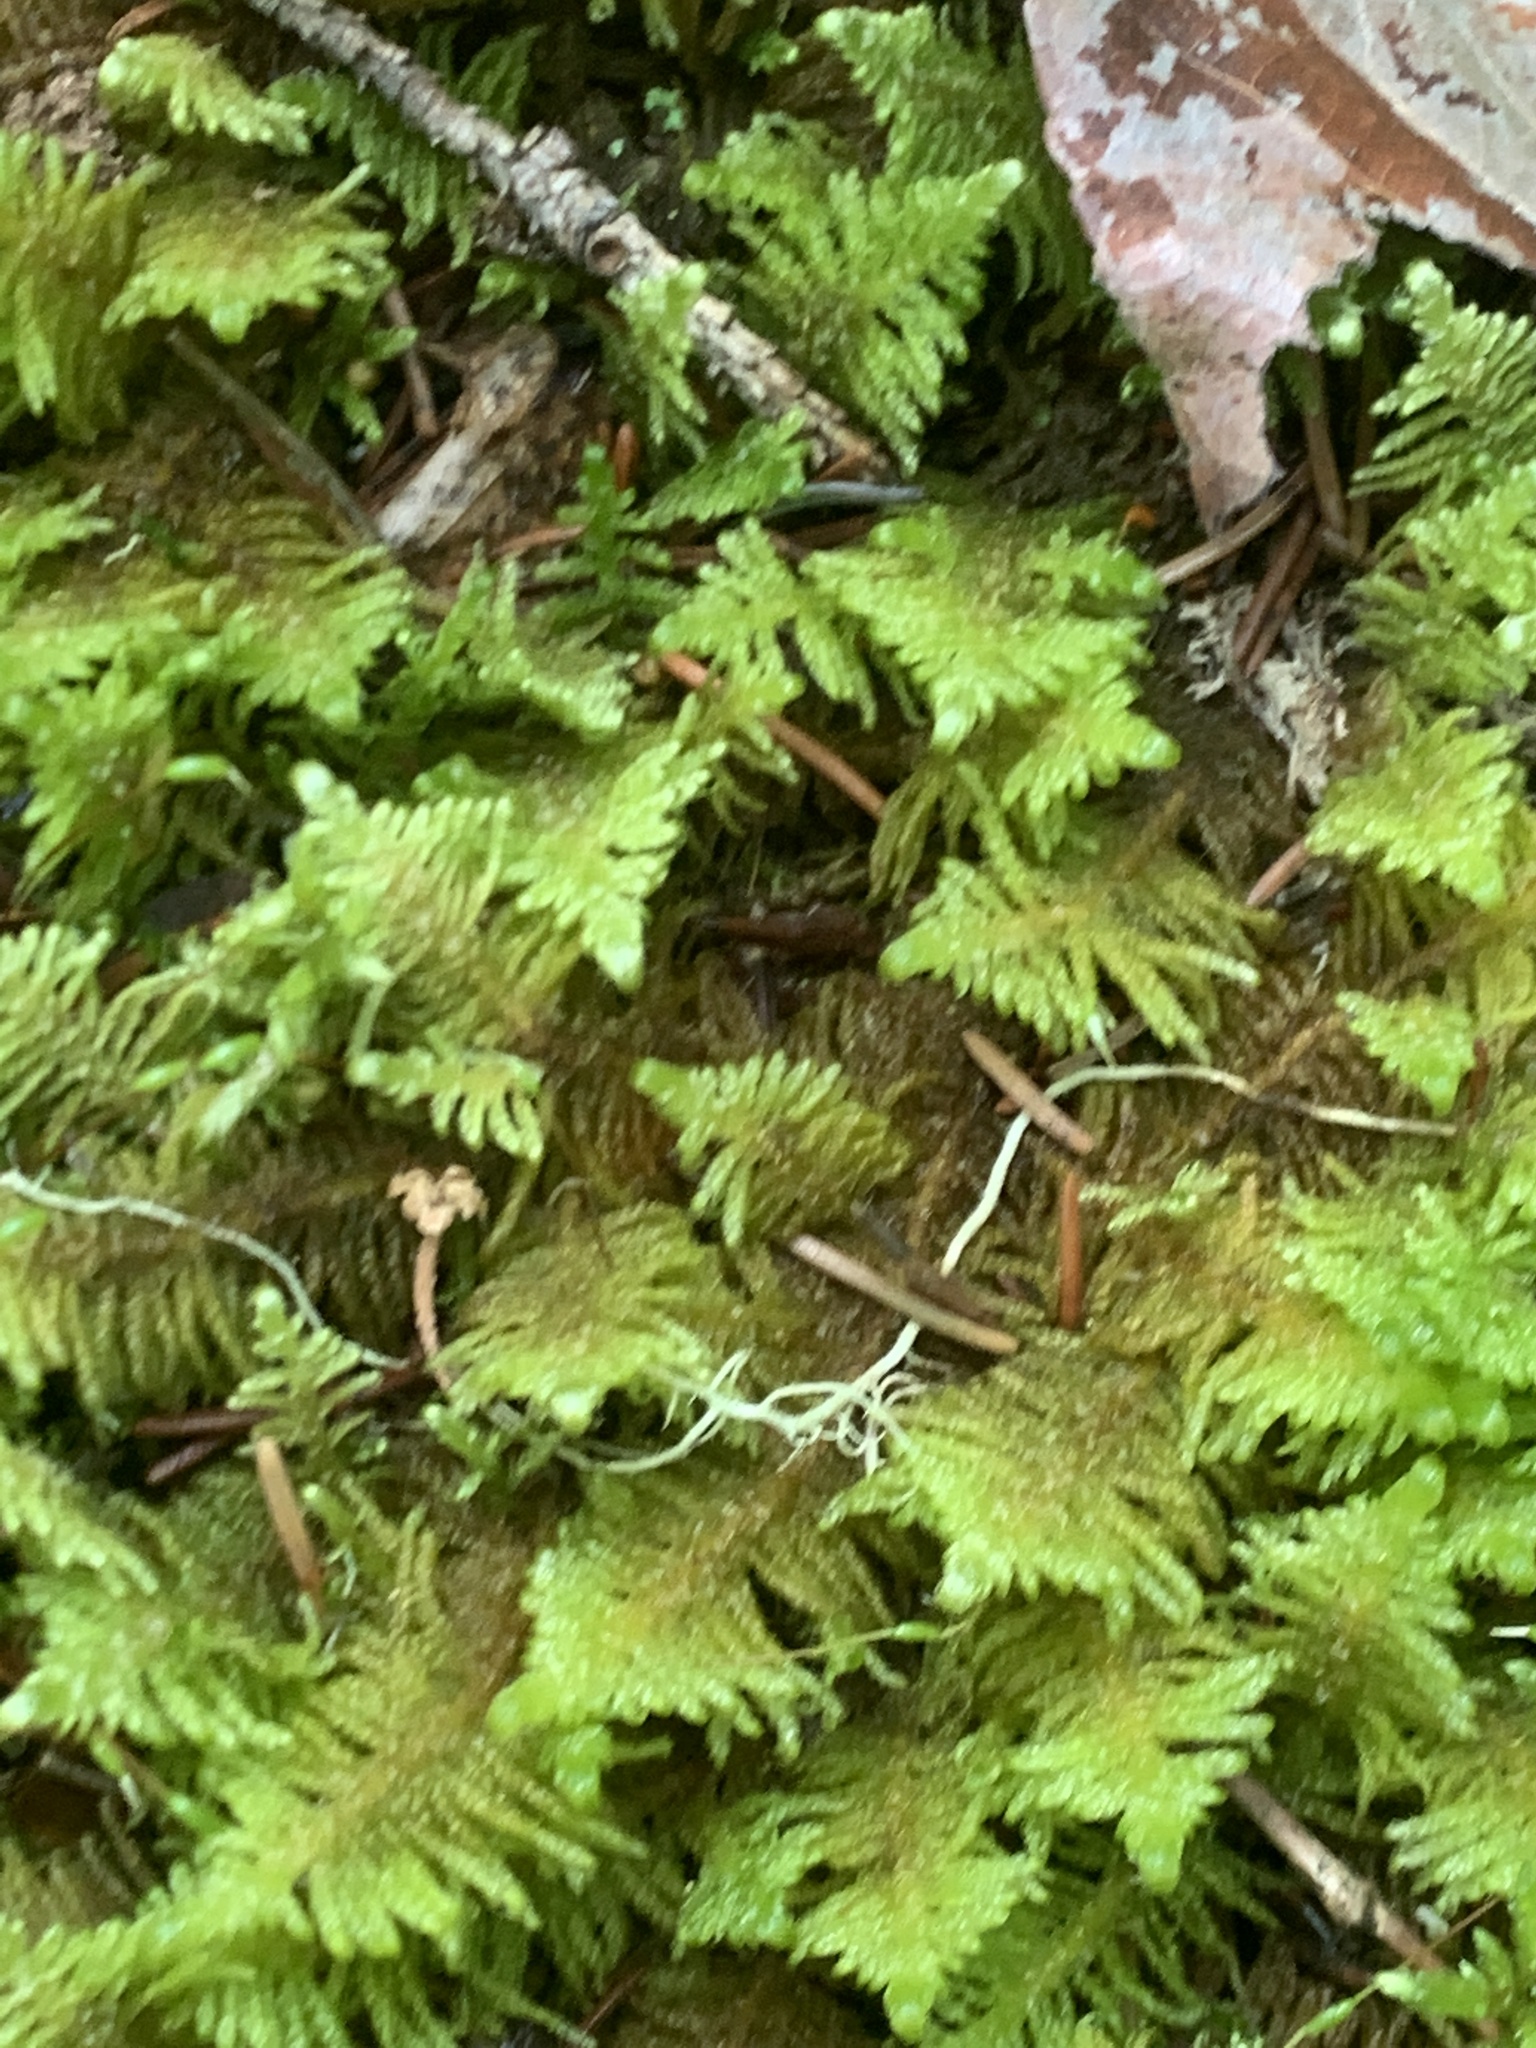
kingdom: Plantae
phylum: Bryophyta
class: Bryopsida
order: Hypnales
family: Pylaisiaceae
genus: Ptilium
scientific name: Ptilium crista-castrensis
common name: Knight's plume moss
